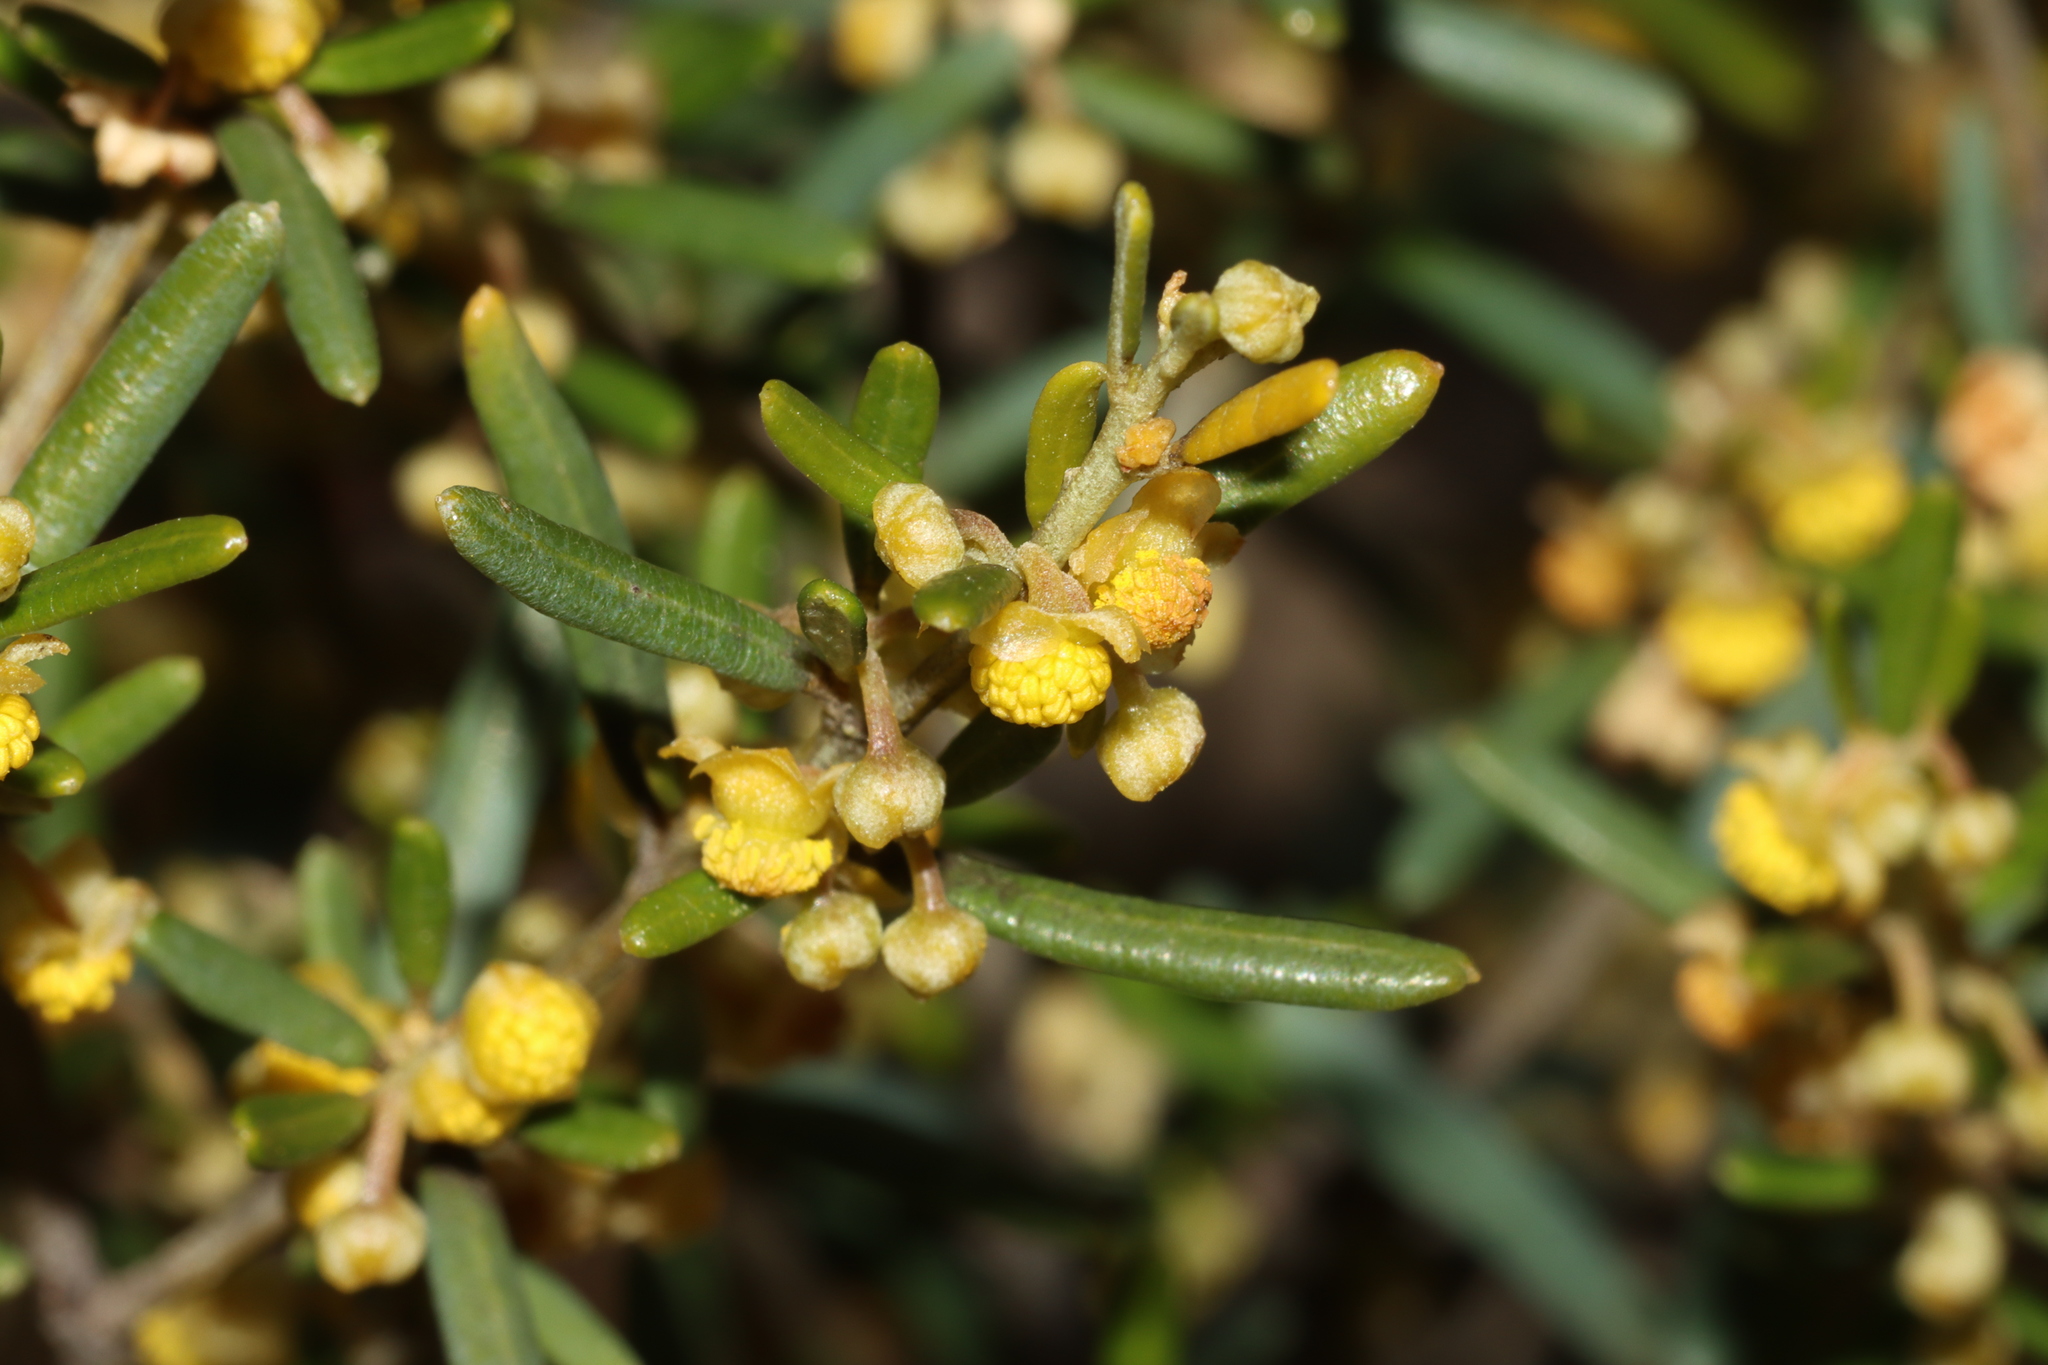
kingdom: Plantae
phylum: Tracheophyta
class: Magnoliopsida
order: Malpighiales
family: Euphorbiaceae
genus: Beyeria
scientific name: Beyeria lechenaultii
